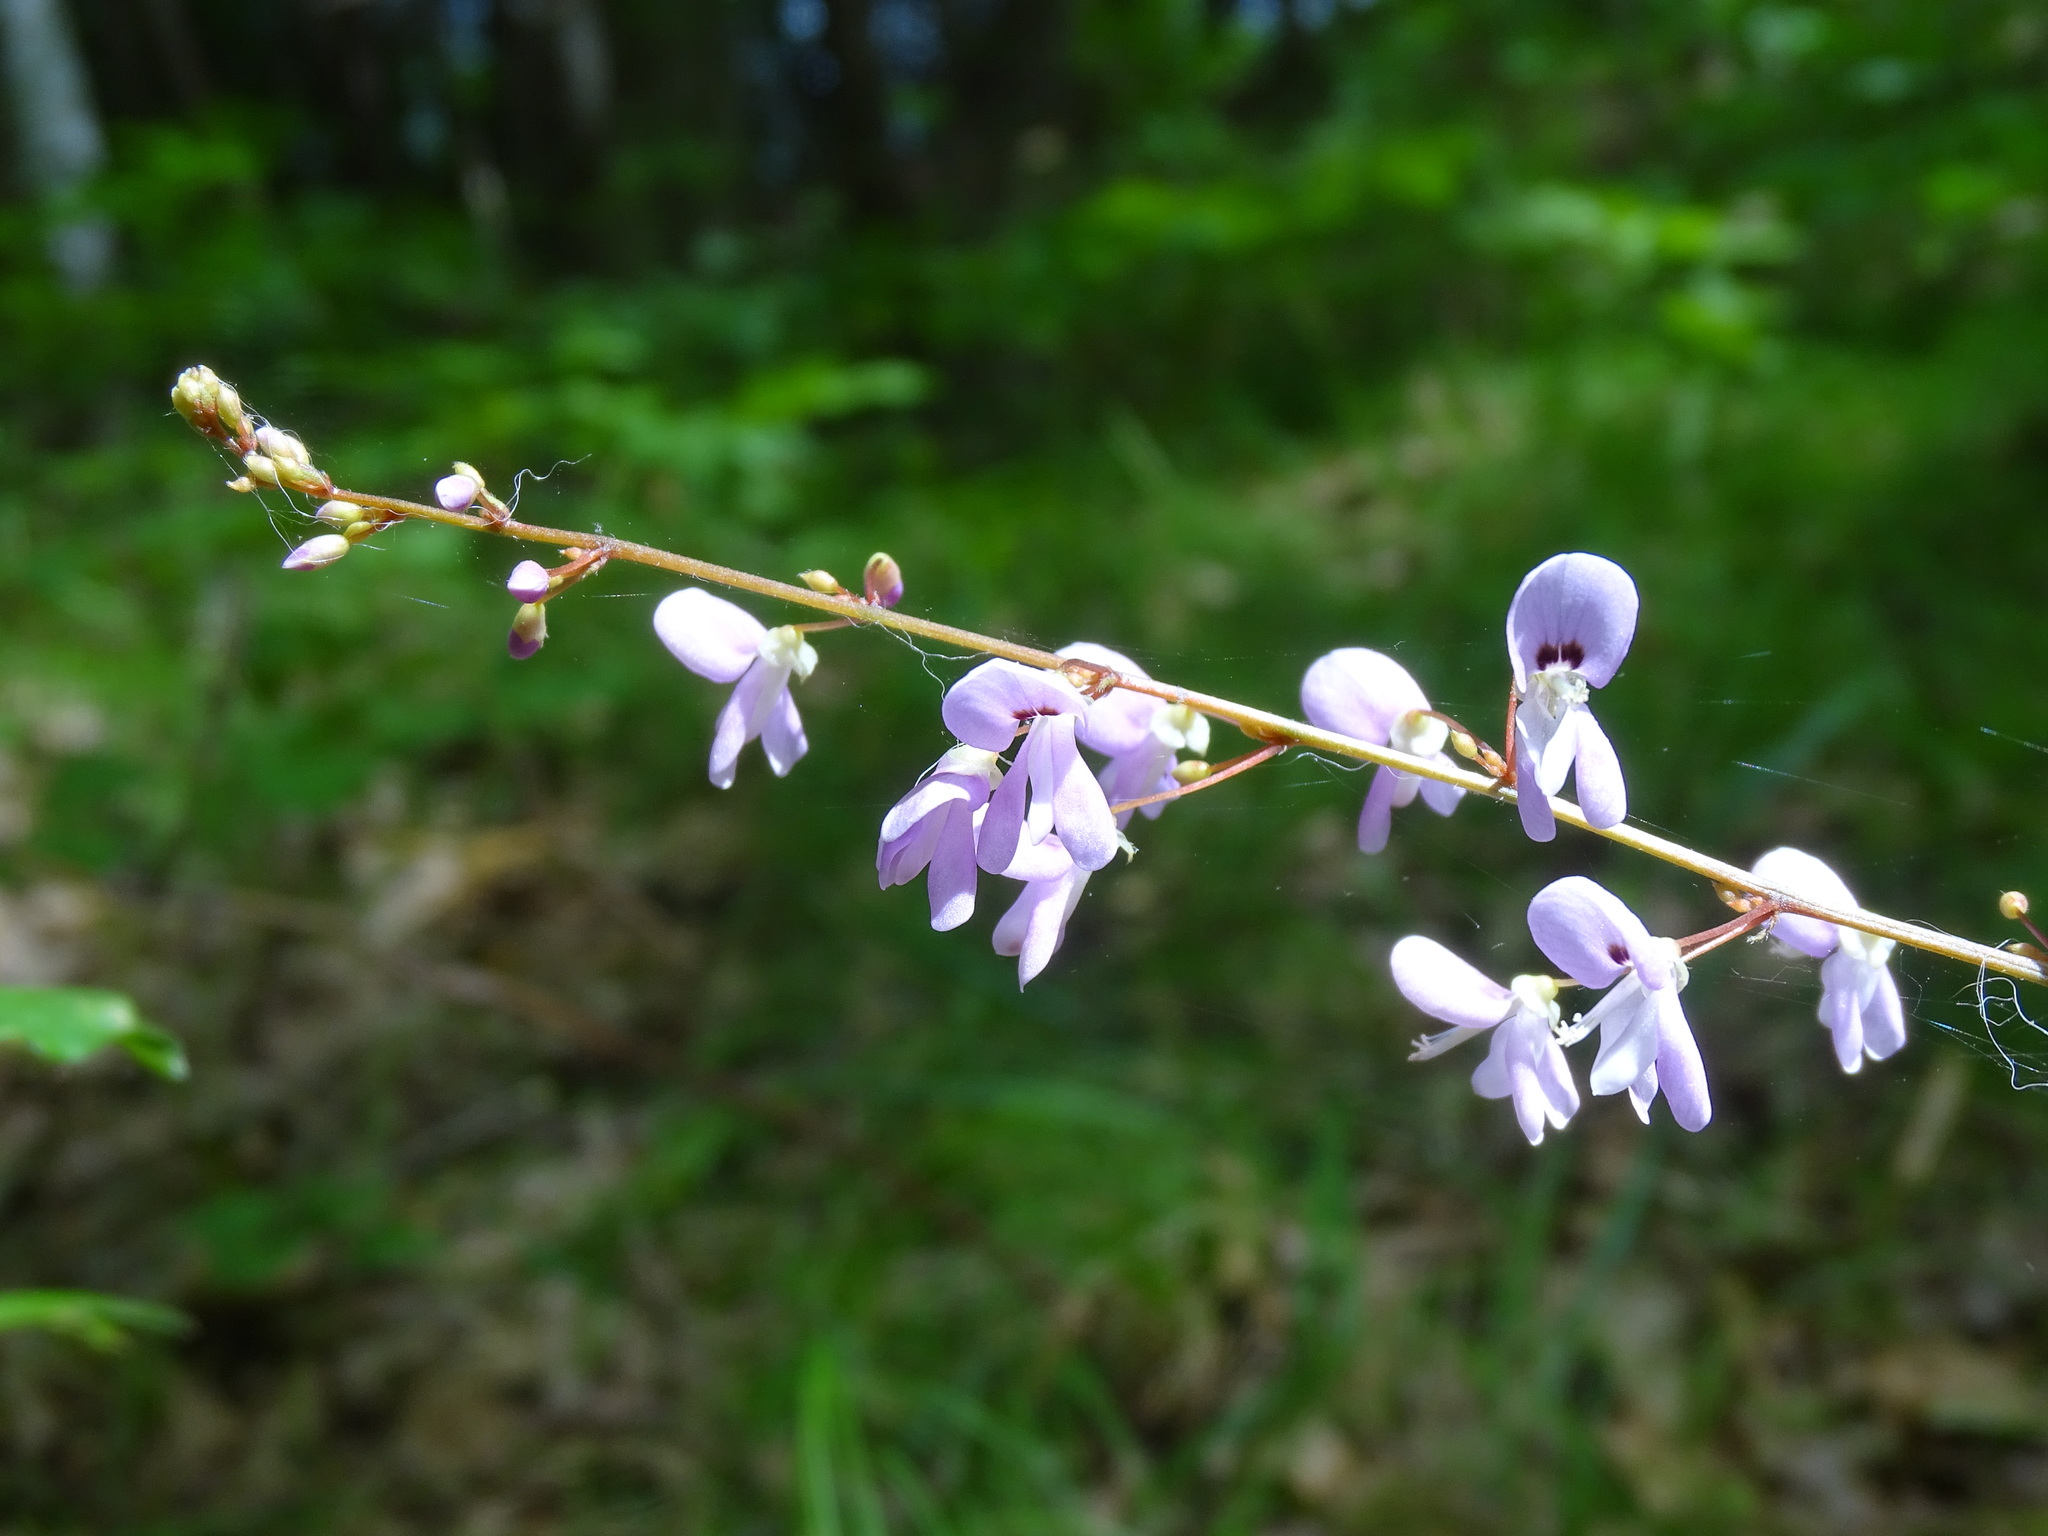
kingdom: Plantae
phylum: Tracheophyta
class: Magnoliopsida
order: Fabales
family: Fabaceae
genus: Hylodesmum
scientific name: Hylodesmum nudiflorum
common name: Bare-stemmed tick-trefoil
